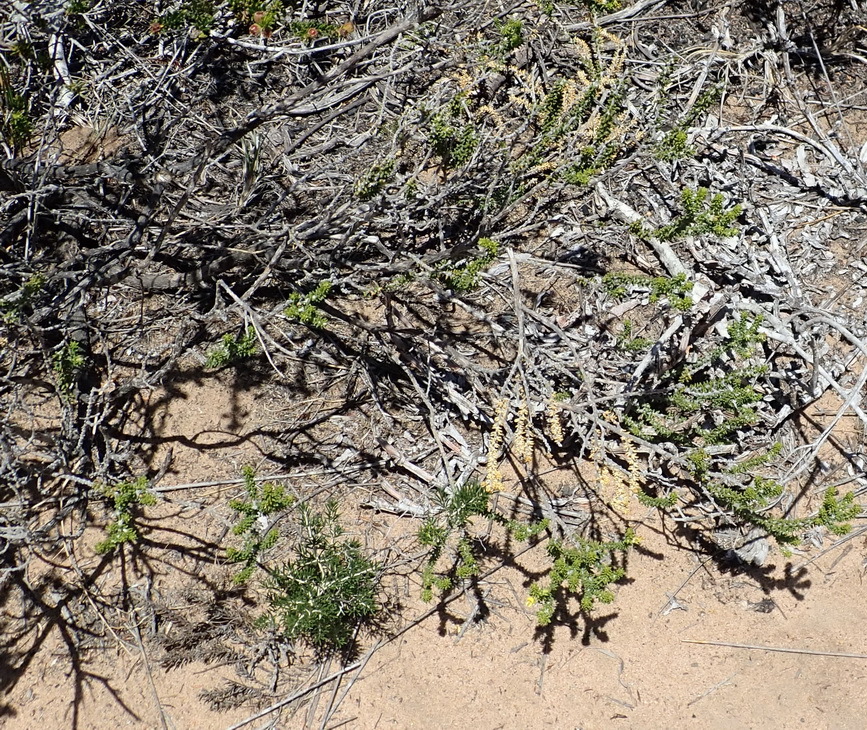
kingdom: Plantae
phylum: Tracheophyta
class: Magnoliopsida
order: Fabales
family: Fabaceae
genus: Aspalathus
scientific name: Aspalathus odontoloba
